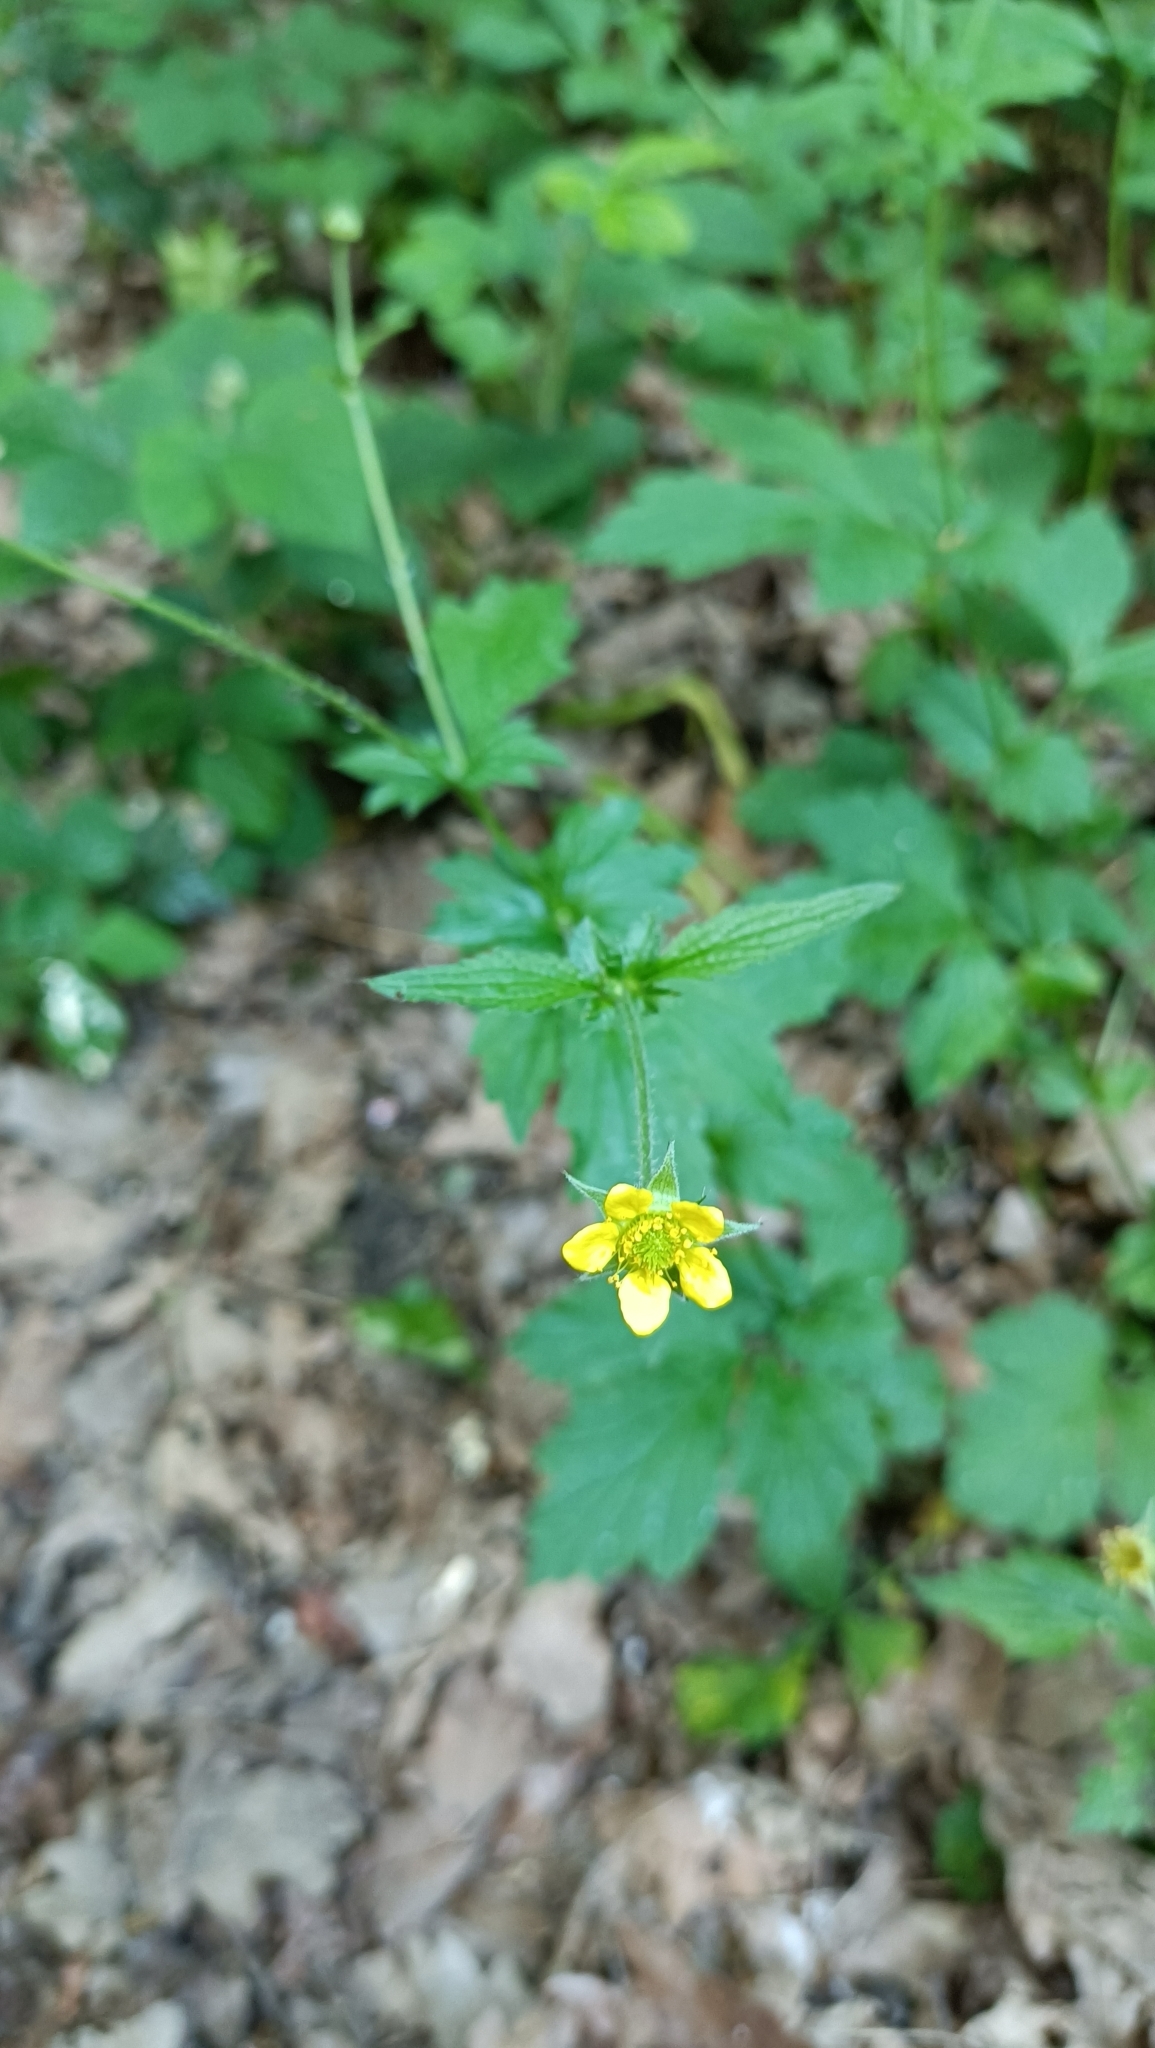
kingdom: Plantae
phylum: Tracheophyta
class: Magnoliopsida
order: Rosales
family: Rosaceae
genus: Geum
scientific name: Geum urbanum
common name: Wood avens
